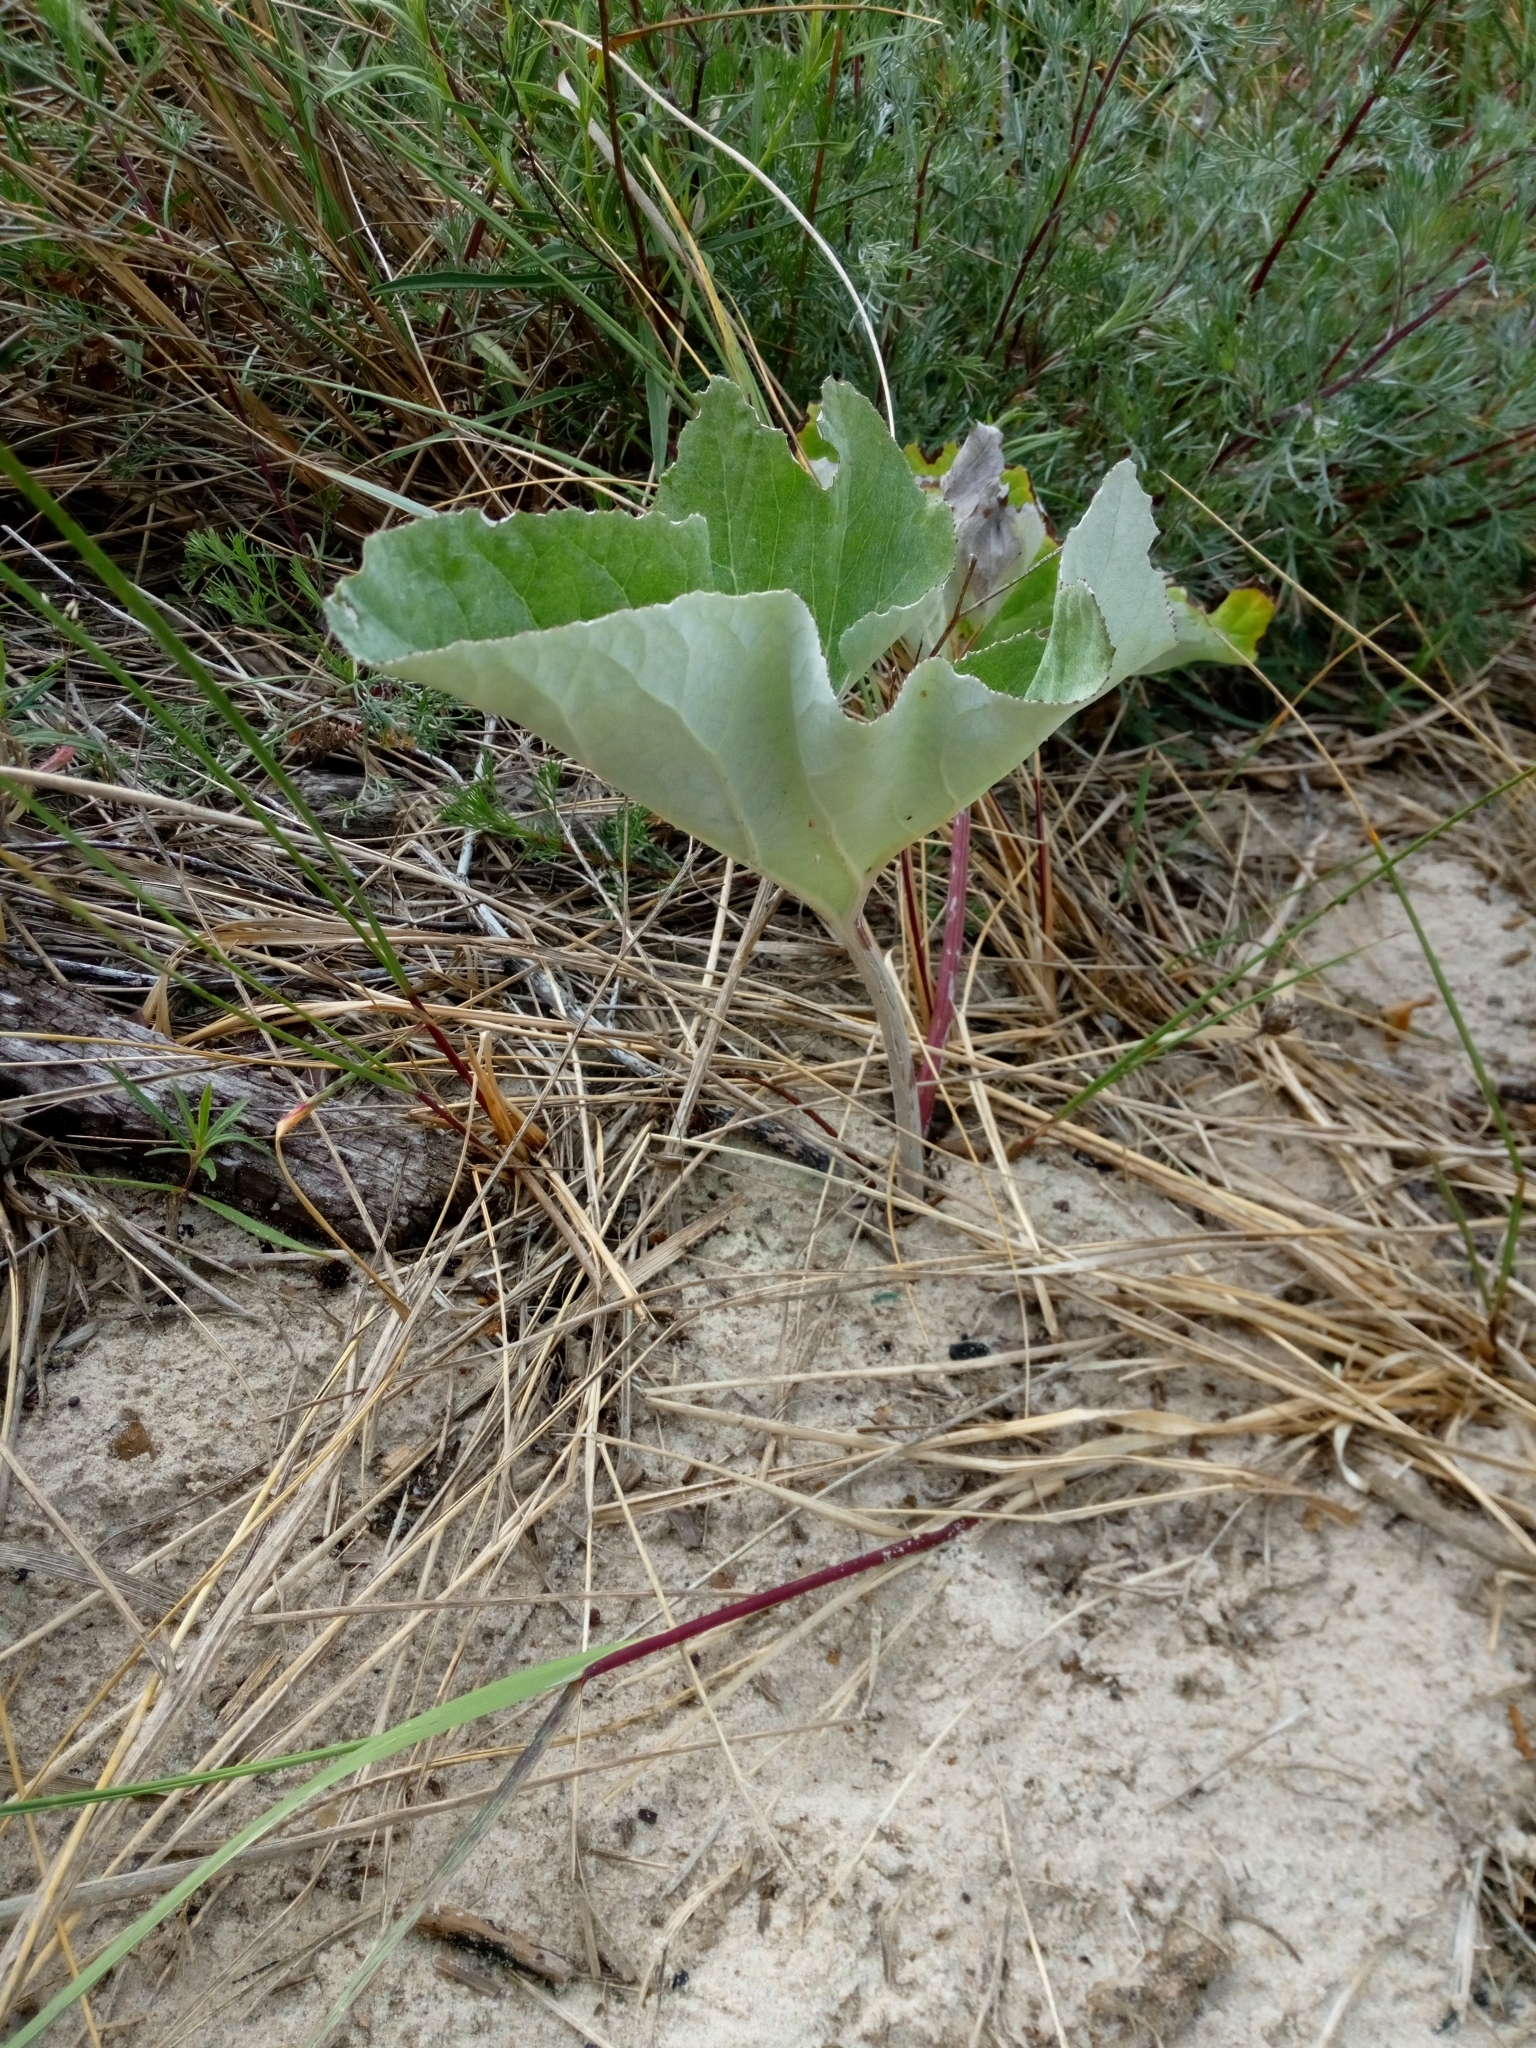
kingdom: Plantae
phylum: Tracheophyta
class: Magnoliopsida
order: Asterales
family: Asteraceae
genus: Petasites
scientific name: Petasites spurius
